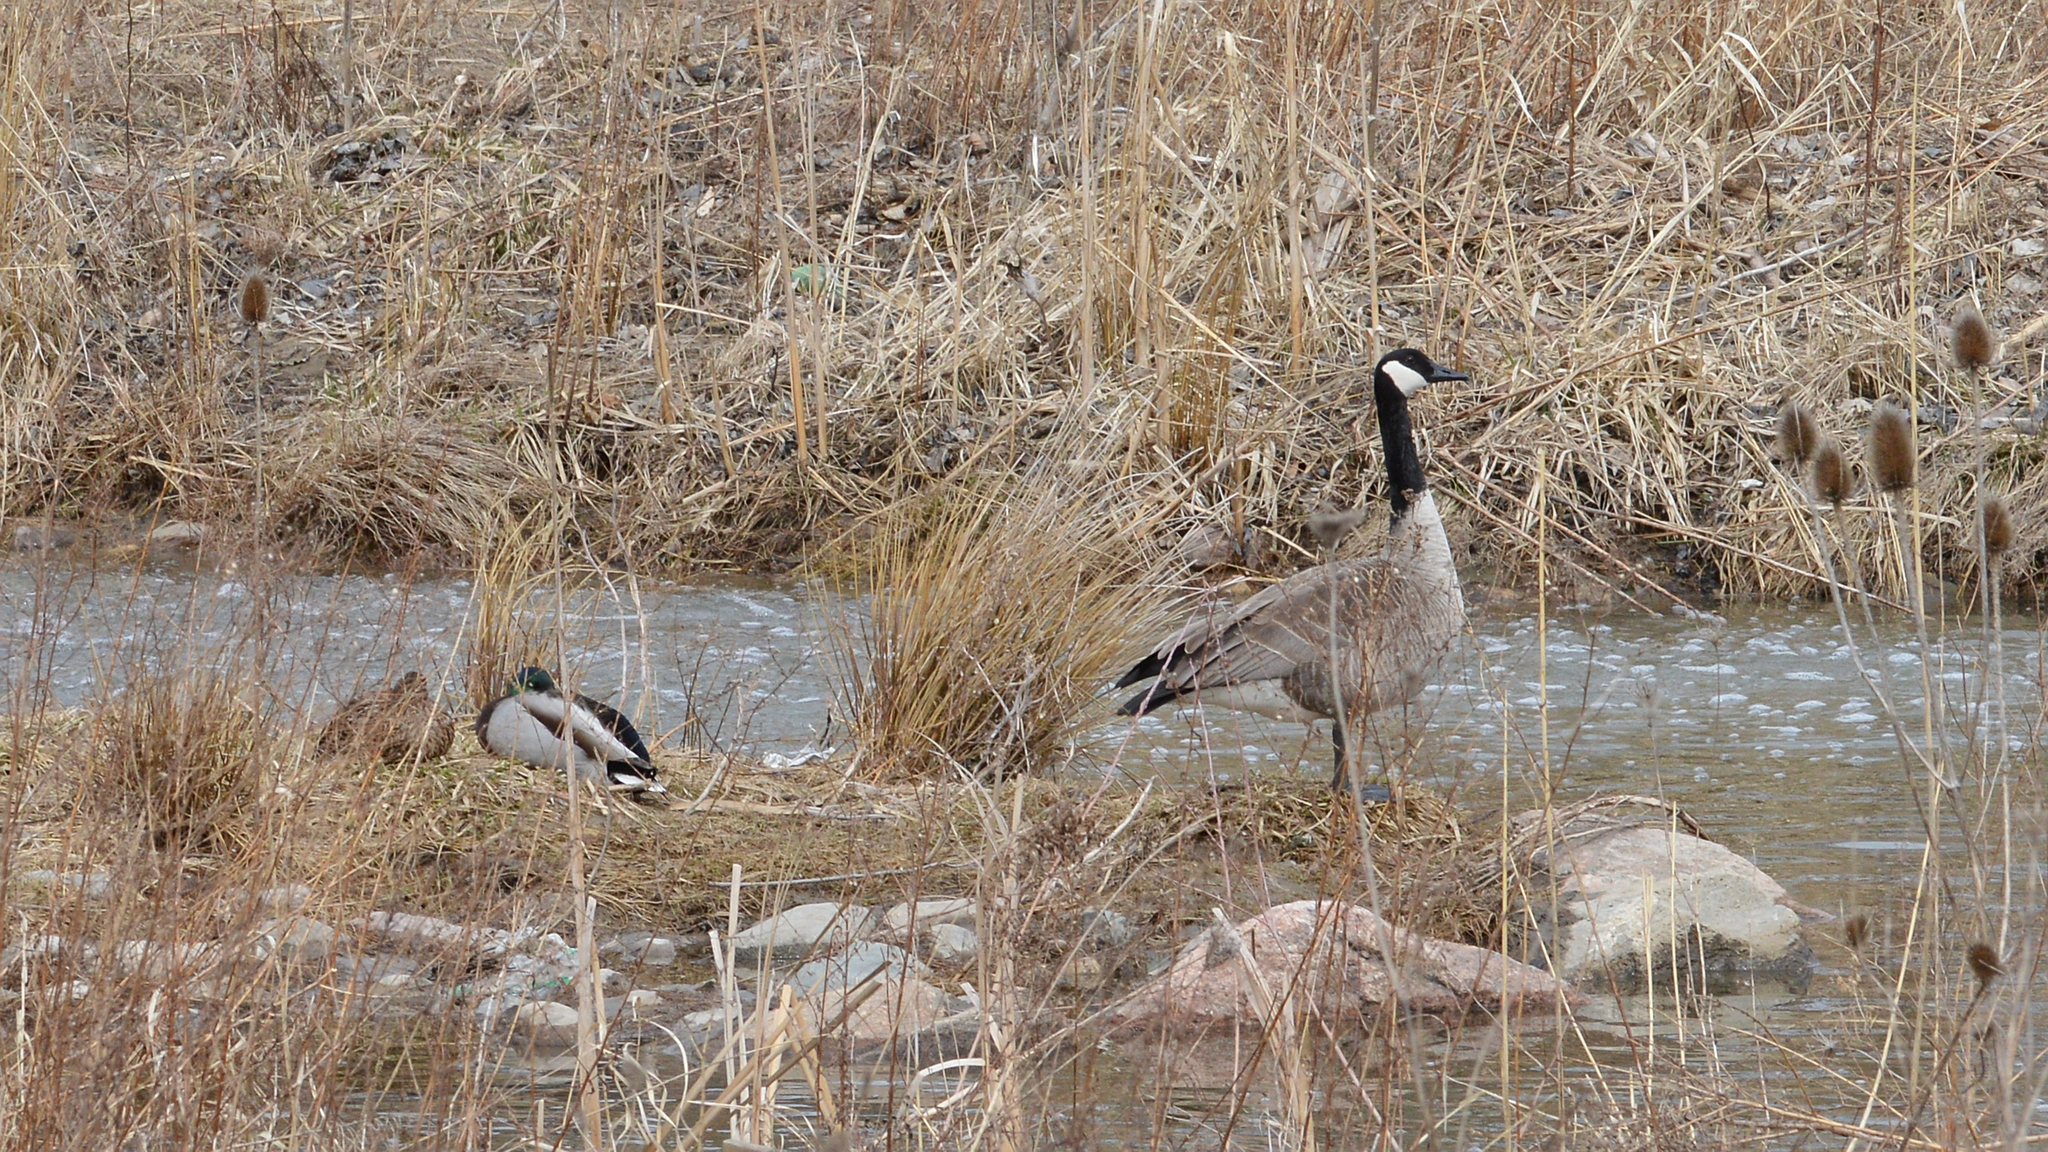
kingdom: Animalia
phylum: Chordata
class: Aves
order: Anseriformes
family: Anatidae
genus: Branta
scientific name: Branta canadensis
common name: Canada goose
